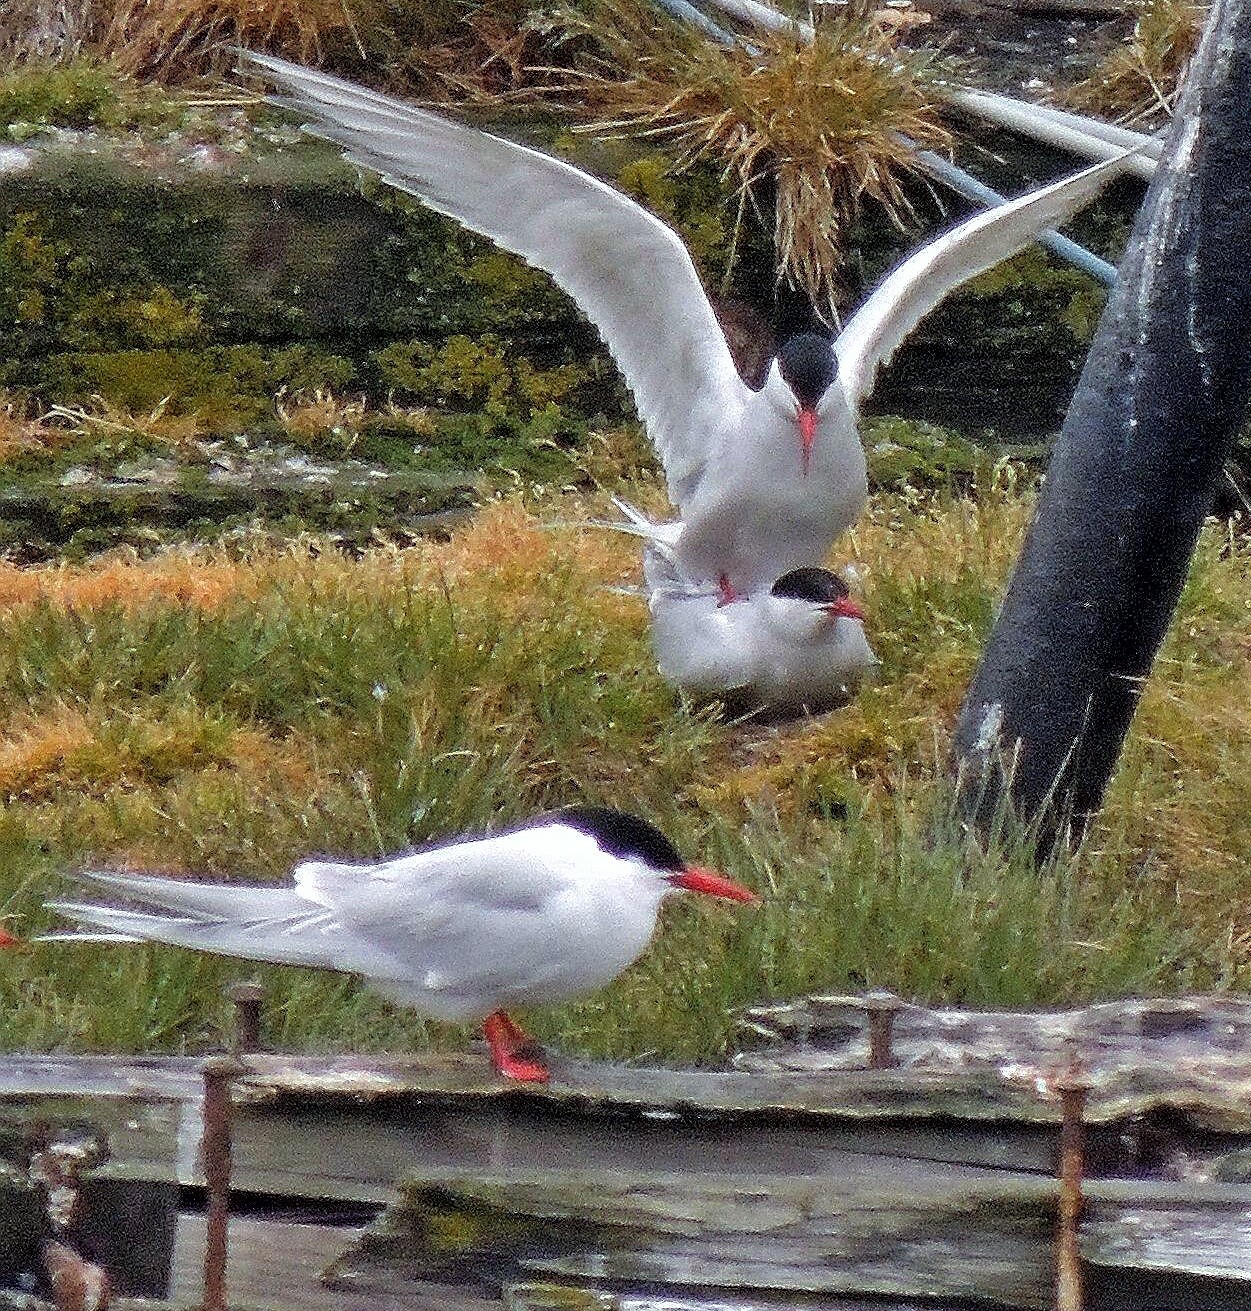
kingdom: Animalia
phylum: Chordata
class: Aves
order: Charadriiformes
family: Laridae
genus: Sterna
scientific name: Sterna hirundinacea
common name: South american tern
